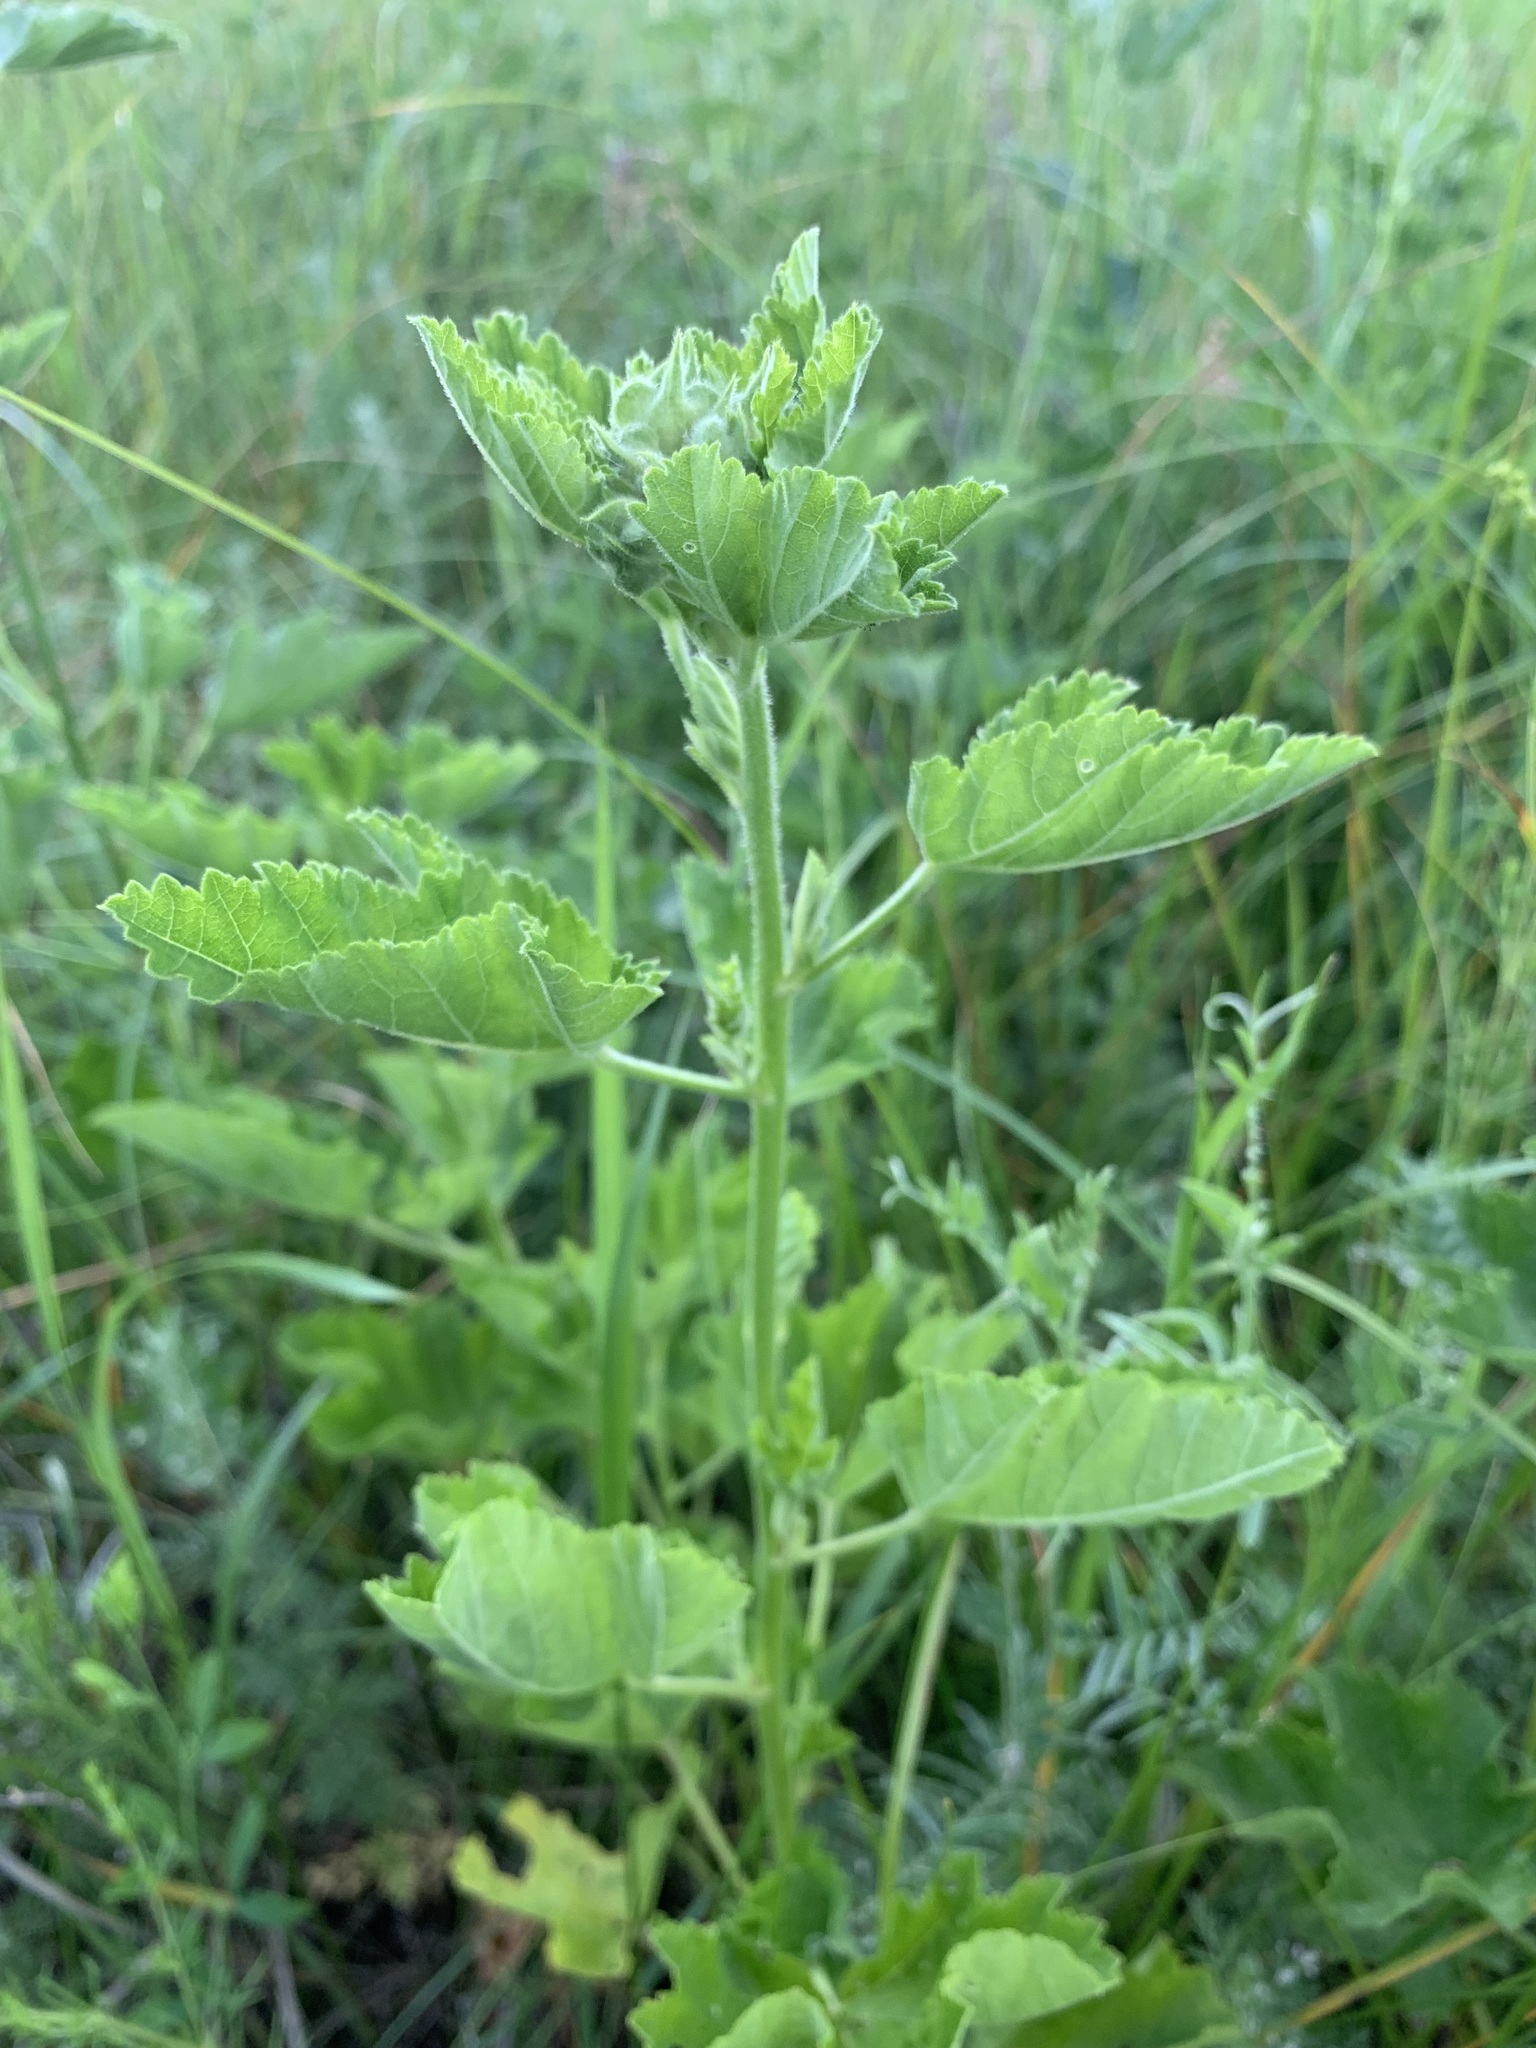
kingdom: Plantae
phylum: Tracheophyta
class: Magnoliopsida
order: Malvales
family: Malvaceae
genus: Malva
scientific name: Malva thuringiaca
